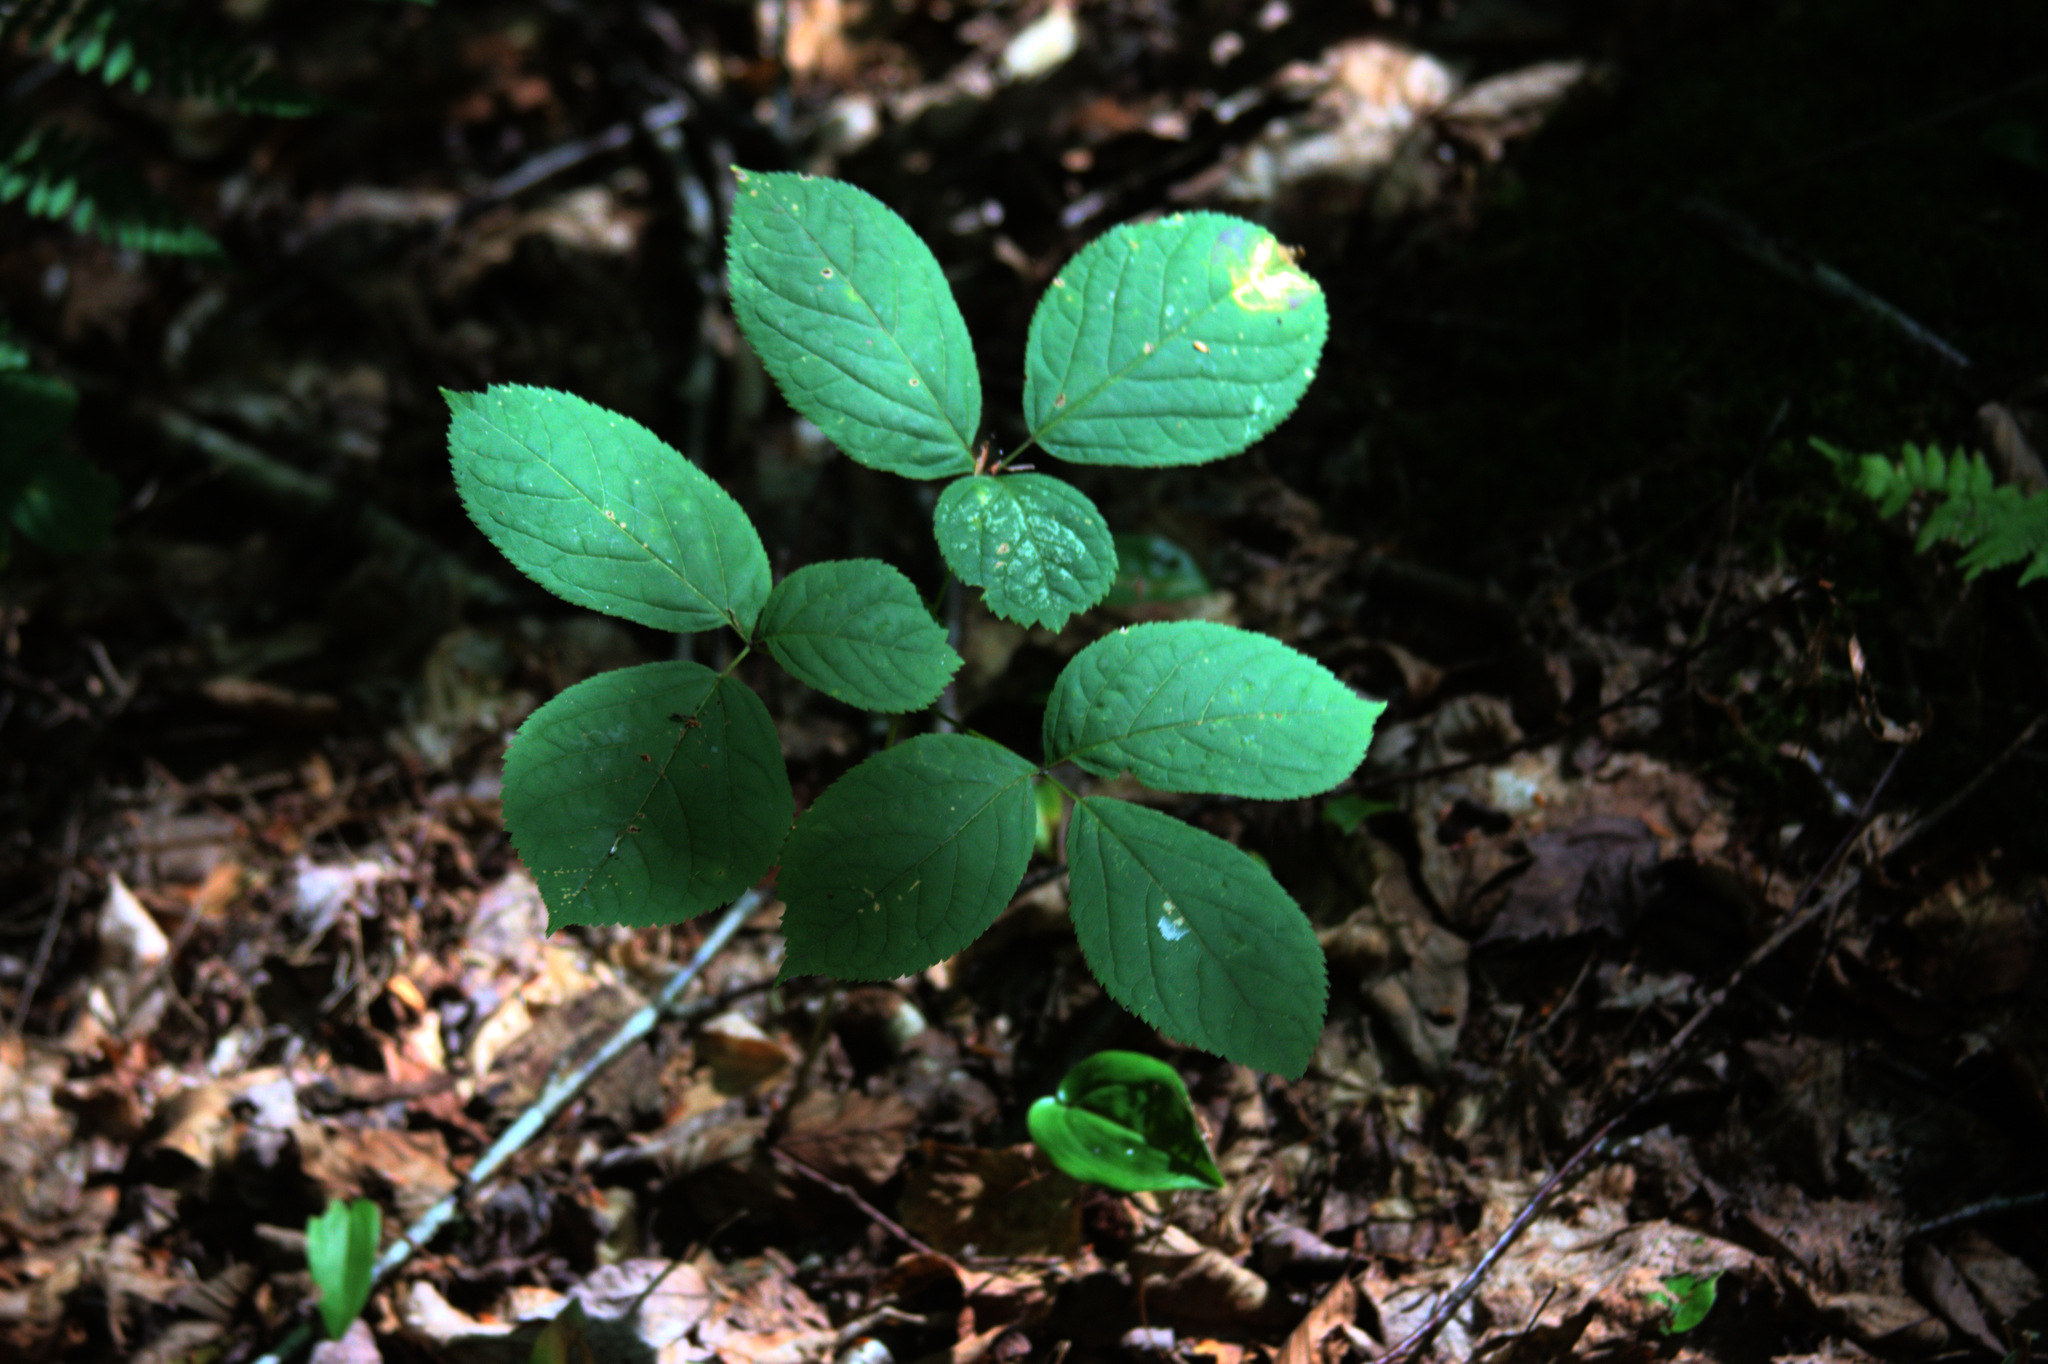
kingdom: Plantae
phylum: Tracheophyta
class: Magnoliopsida
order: Apiales
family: Araliaceae
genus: Aralia
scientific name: Aralia nudicaulis
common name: Wild sarsaparilla
